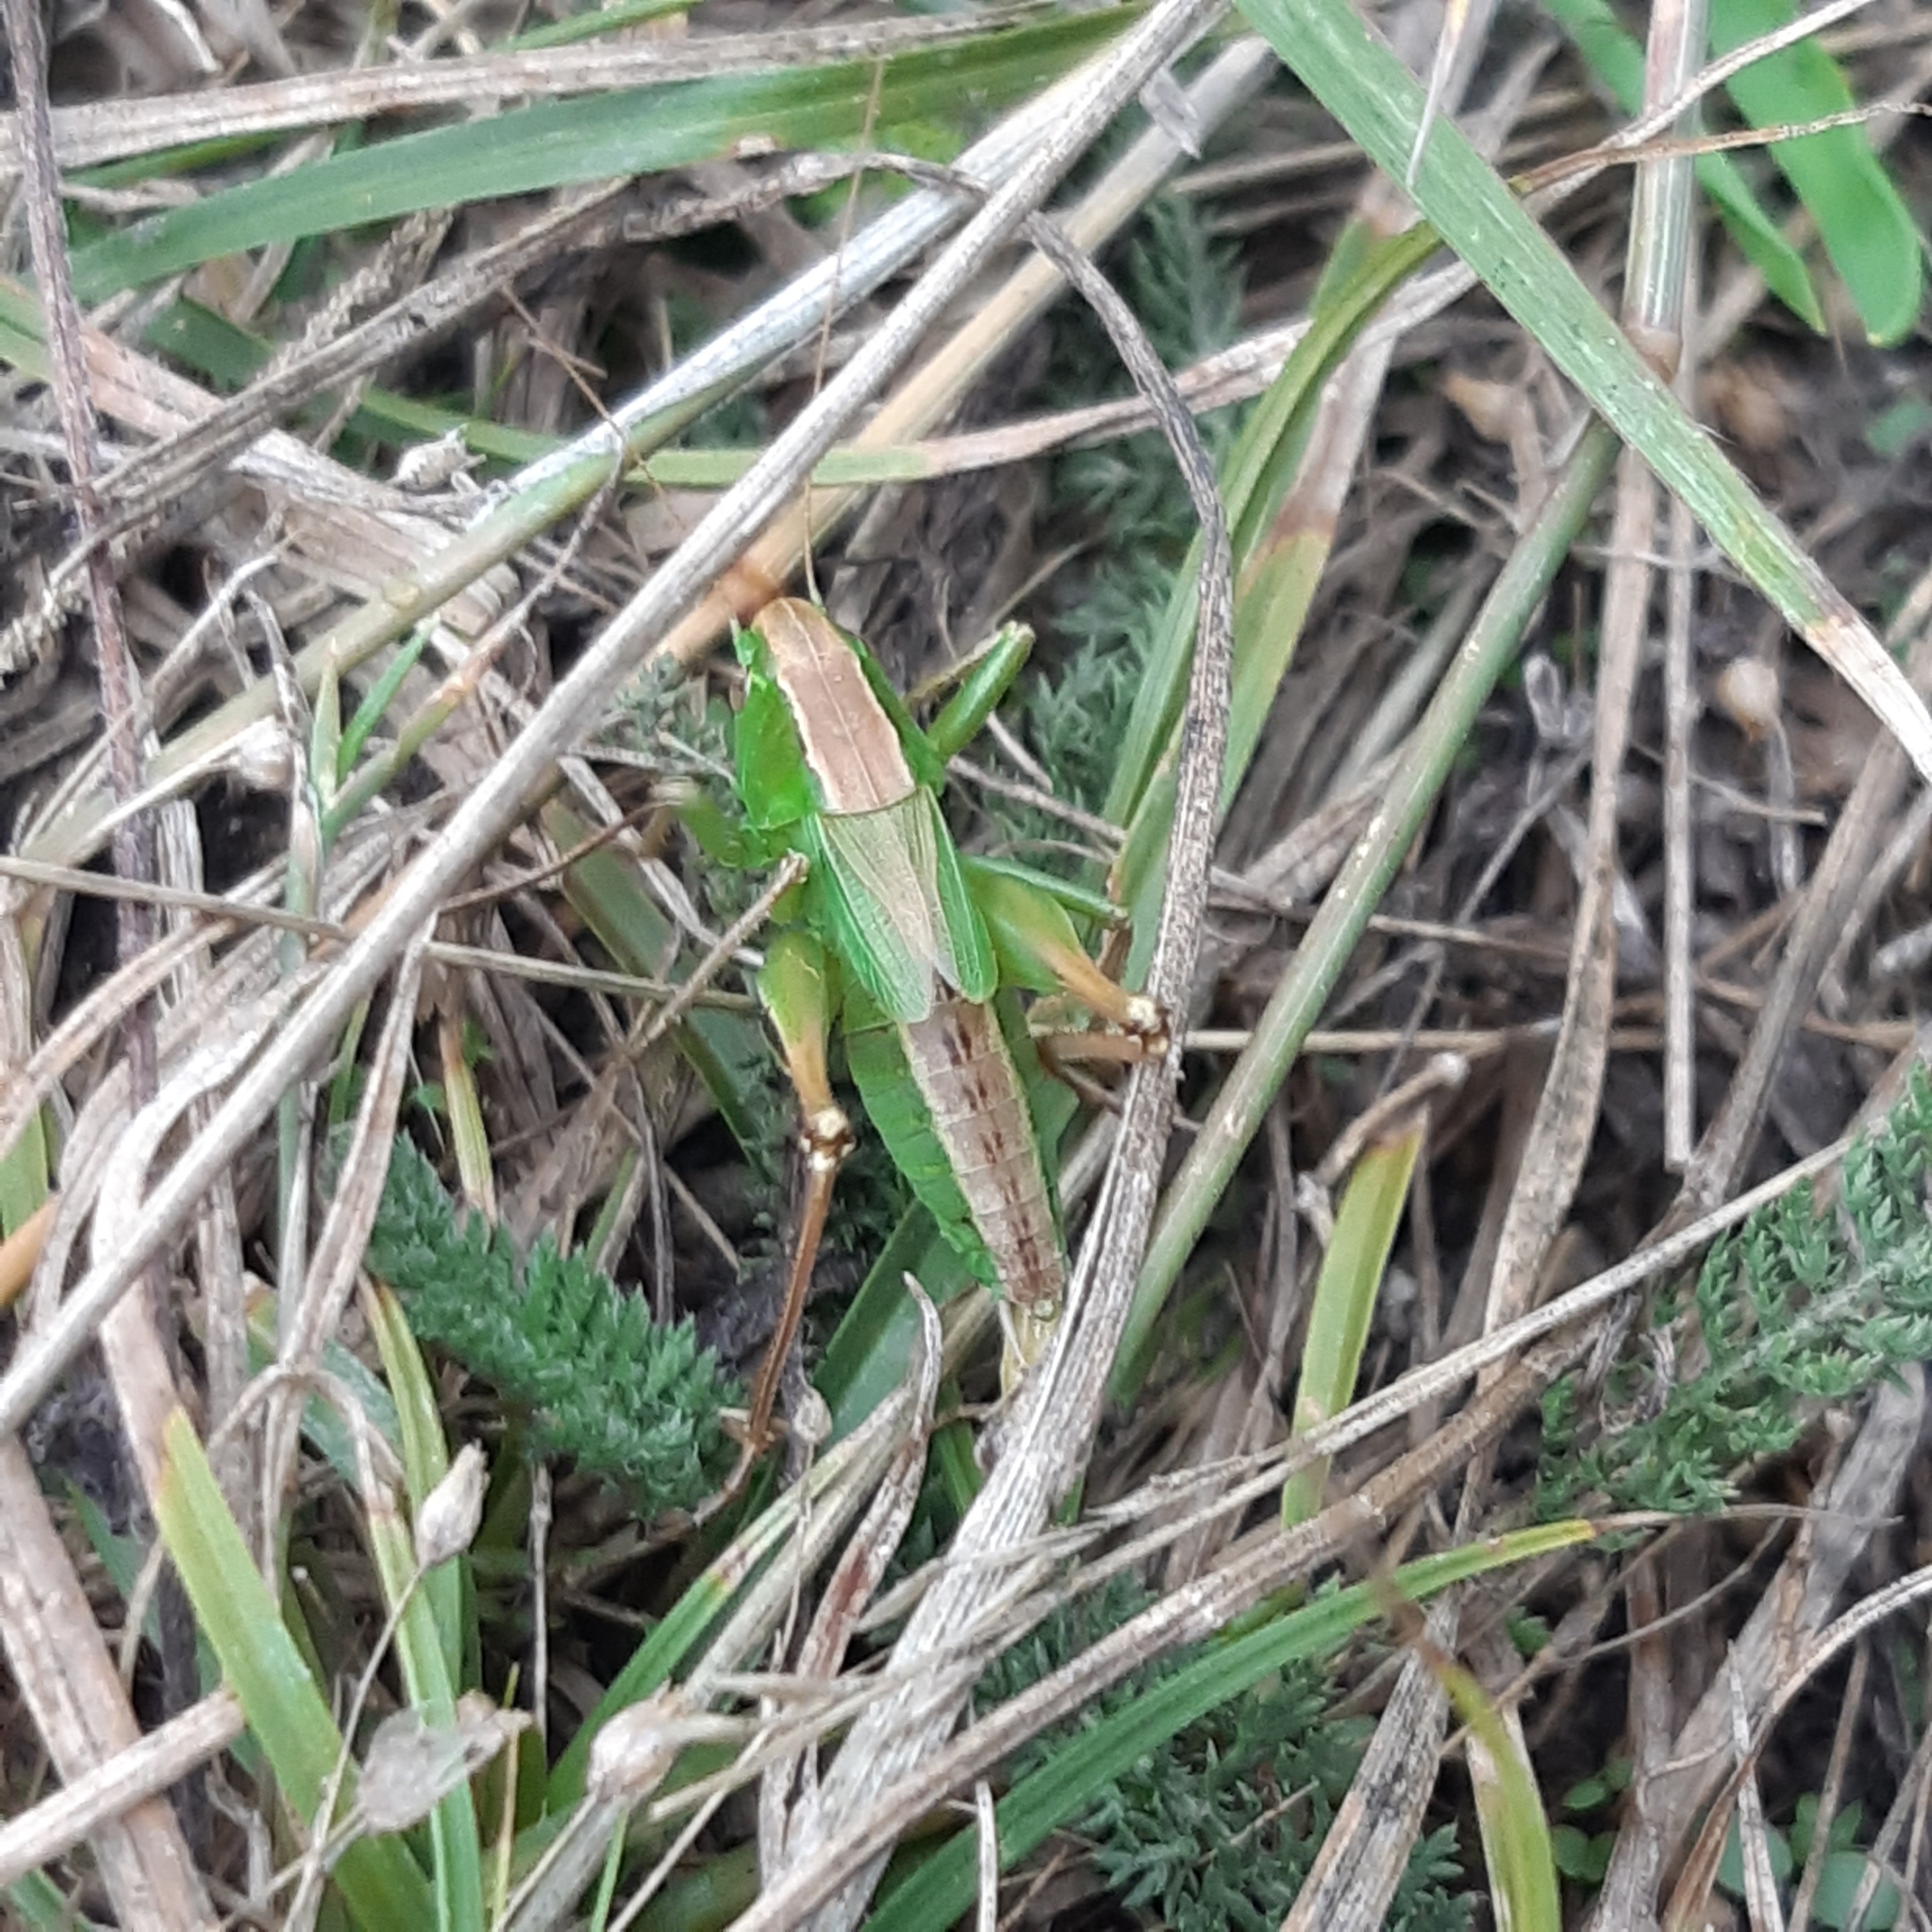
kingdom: Animalia
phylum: Arthropoda
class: Insecta
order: Orthoptera
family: Tettigoniidae
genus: Bicolorana
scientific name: Bicolorana bicolor
